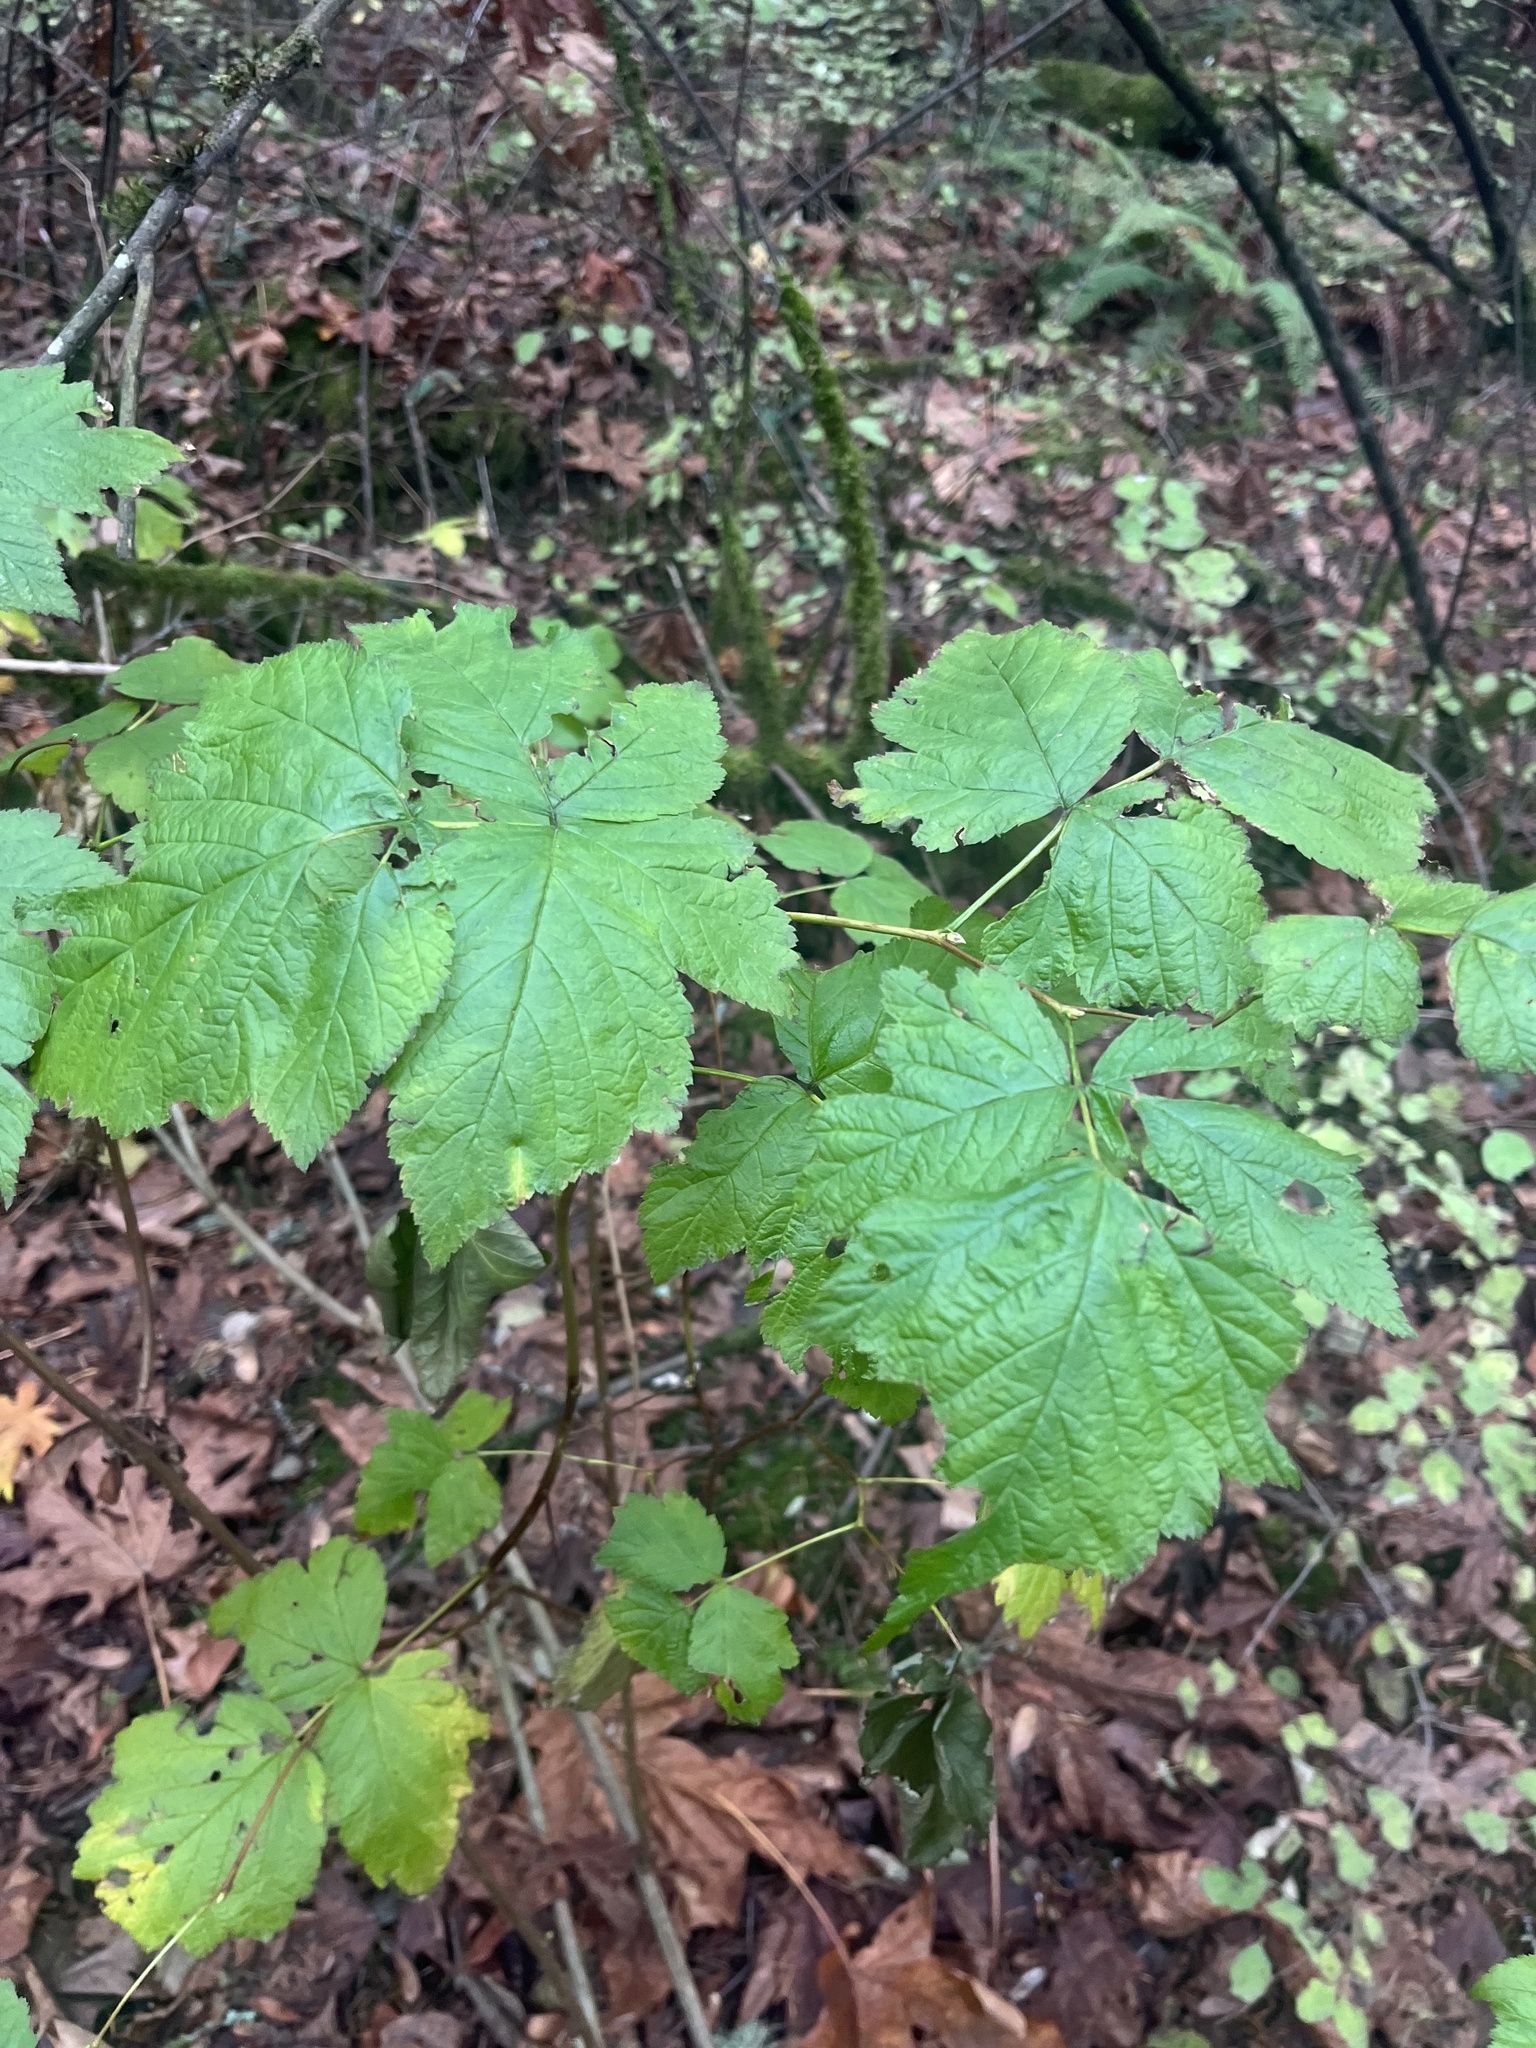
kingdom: Plantae
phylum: Tracheophyta
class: Magnoliopsida
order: Rosales
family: Rosaceae
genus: Rubus
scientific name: Rubus spectabilis
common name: Salmonberry
